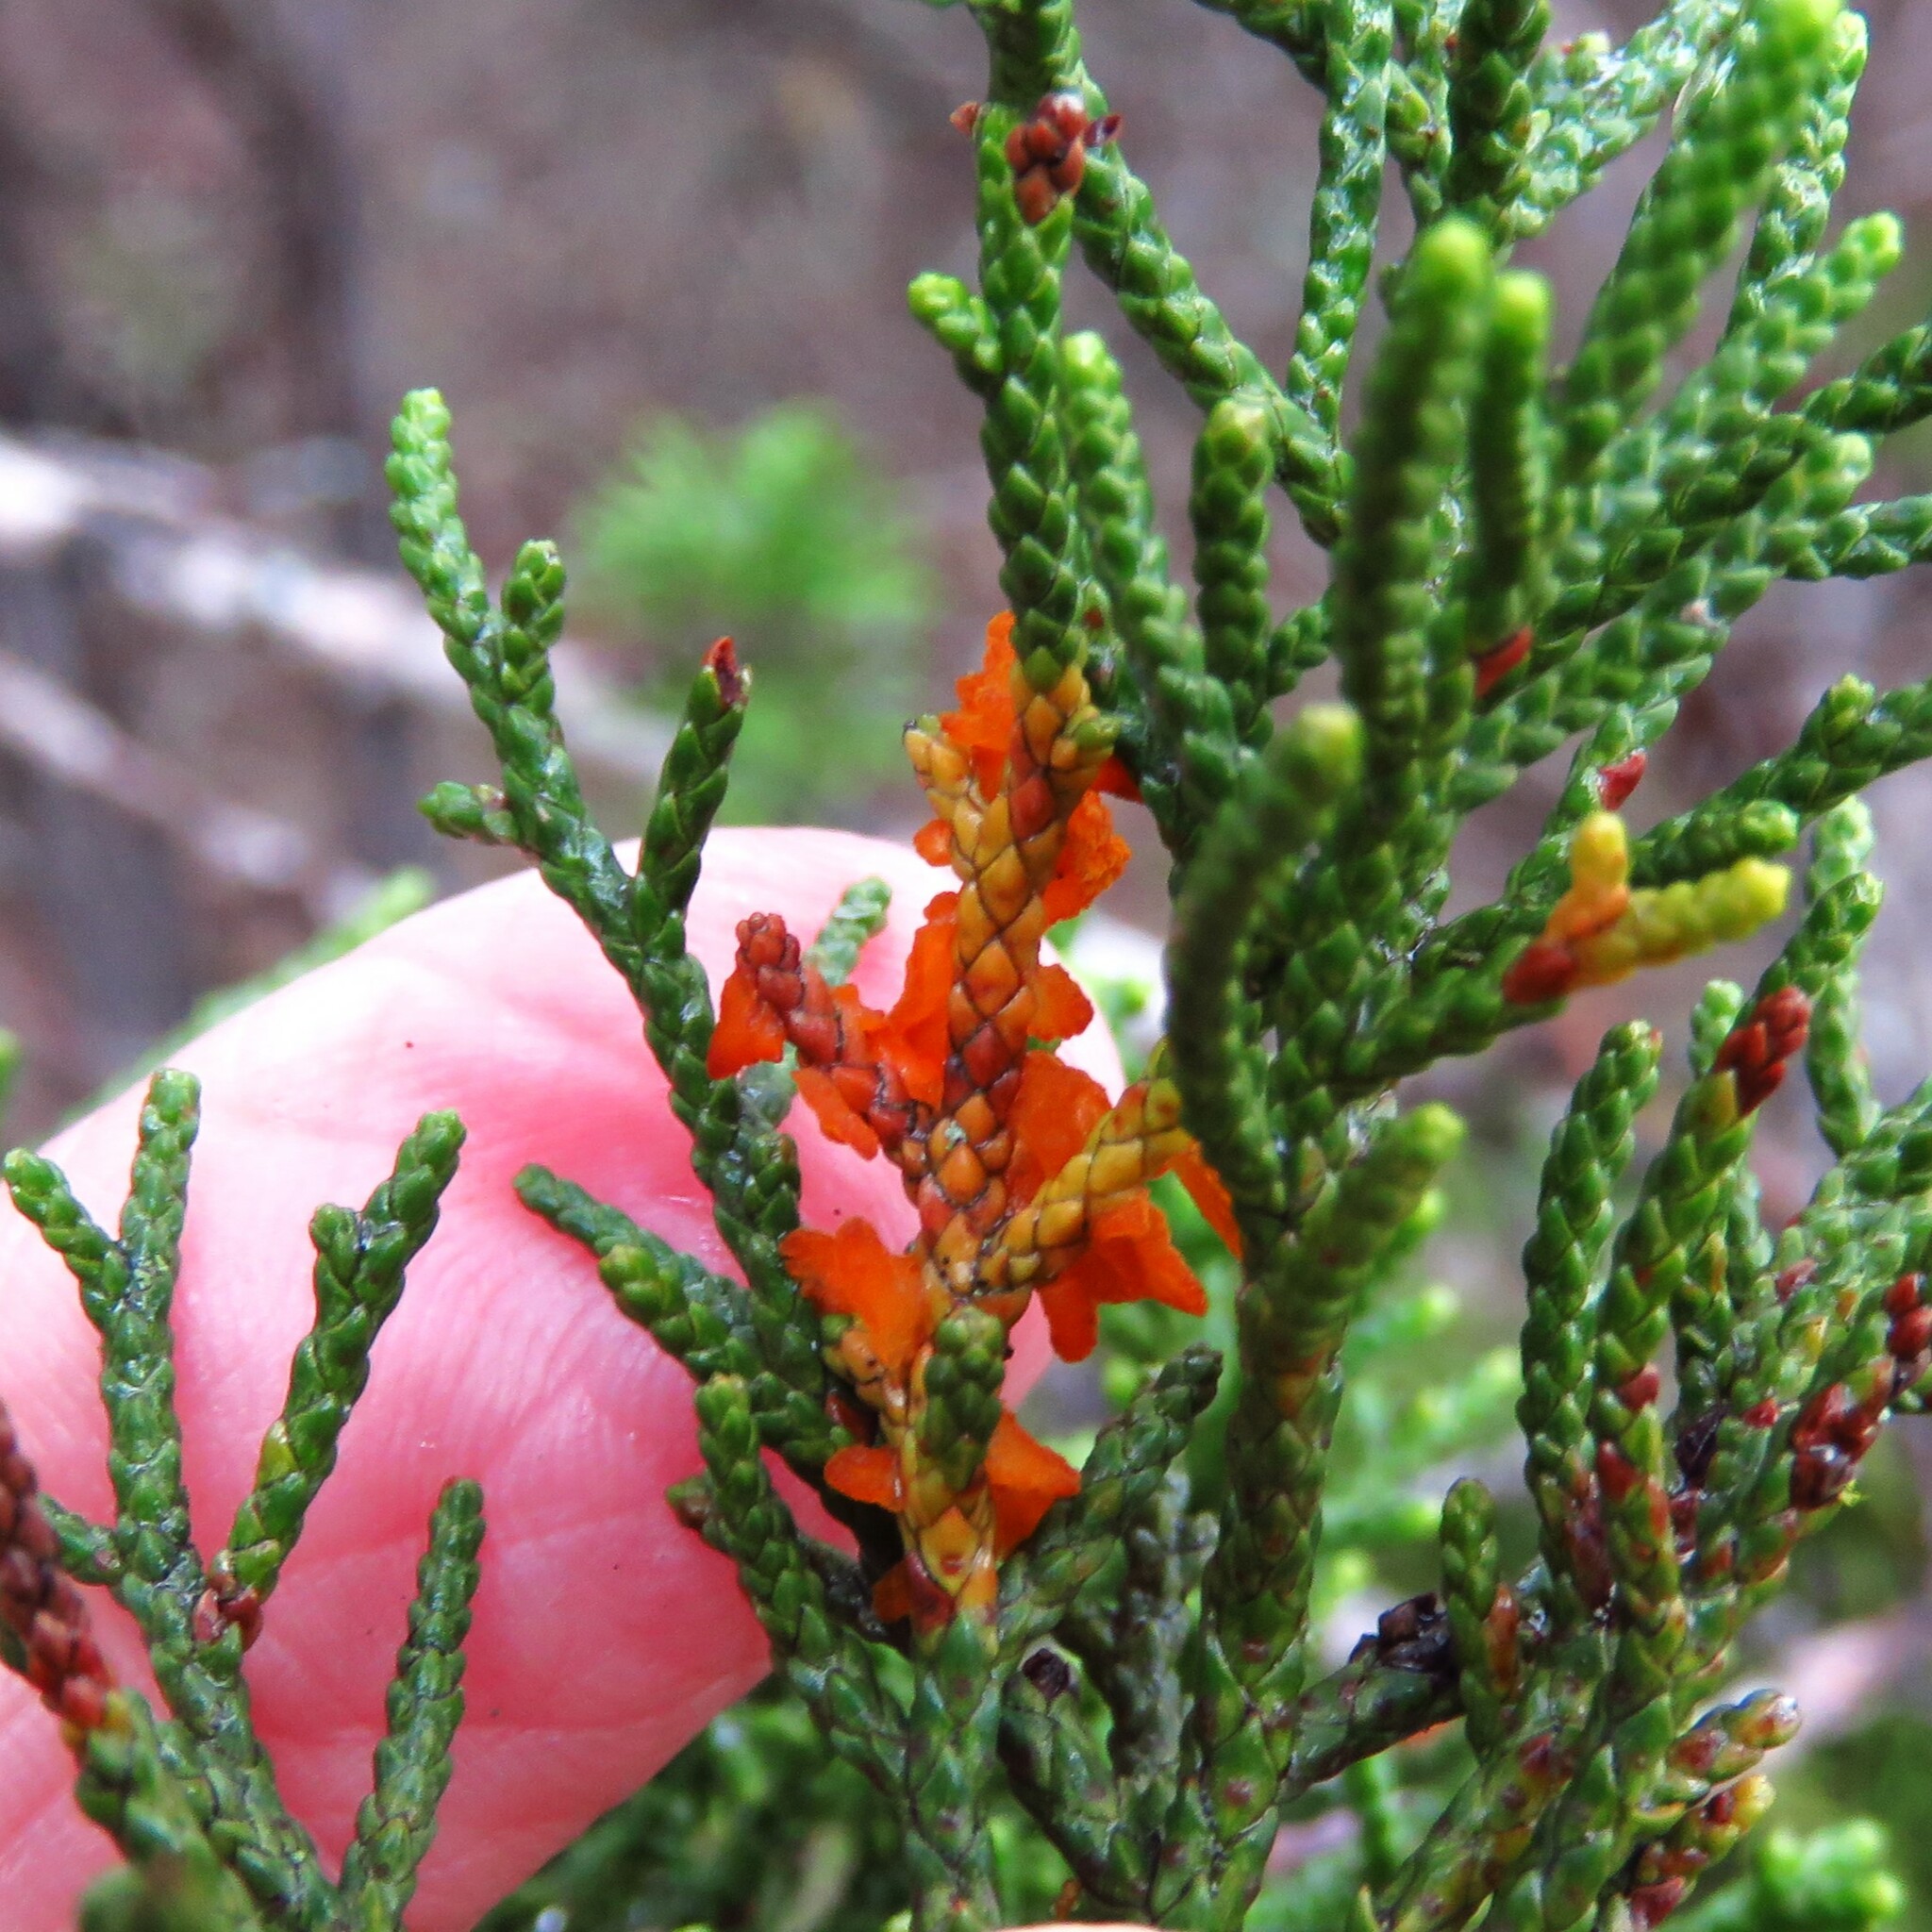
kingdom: Fungi
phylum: Basidiomycota
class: Pucciniomycetes
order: Pucciniales
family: Gymnosporangiaceae
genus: Gymnosporangium
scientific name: Gymnosporangium juniperi-virginianae
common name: Juniper-apple rust
